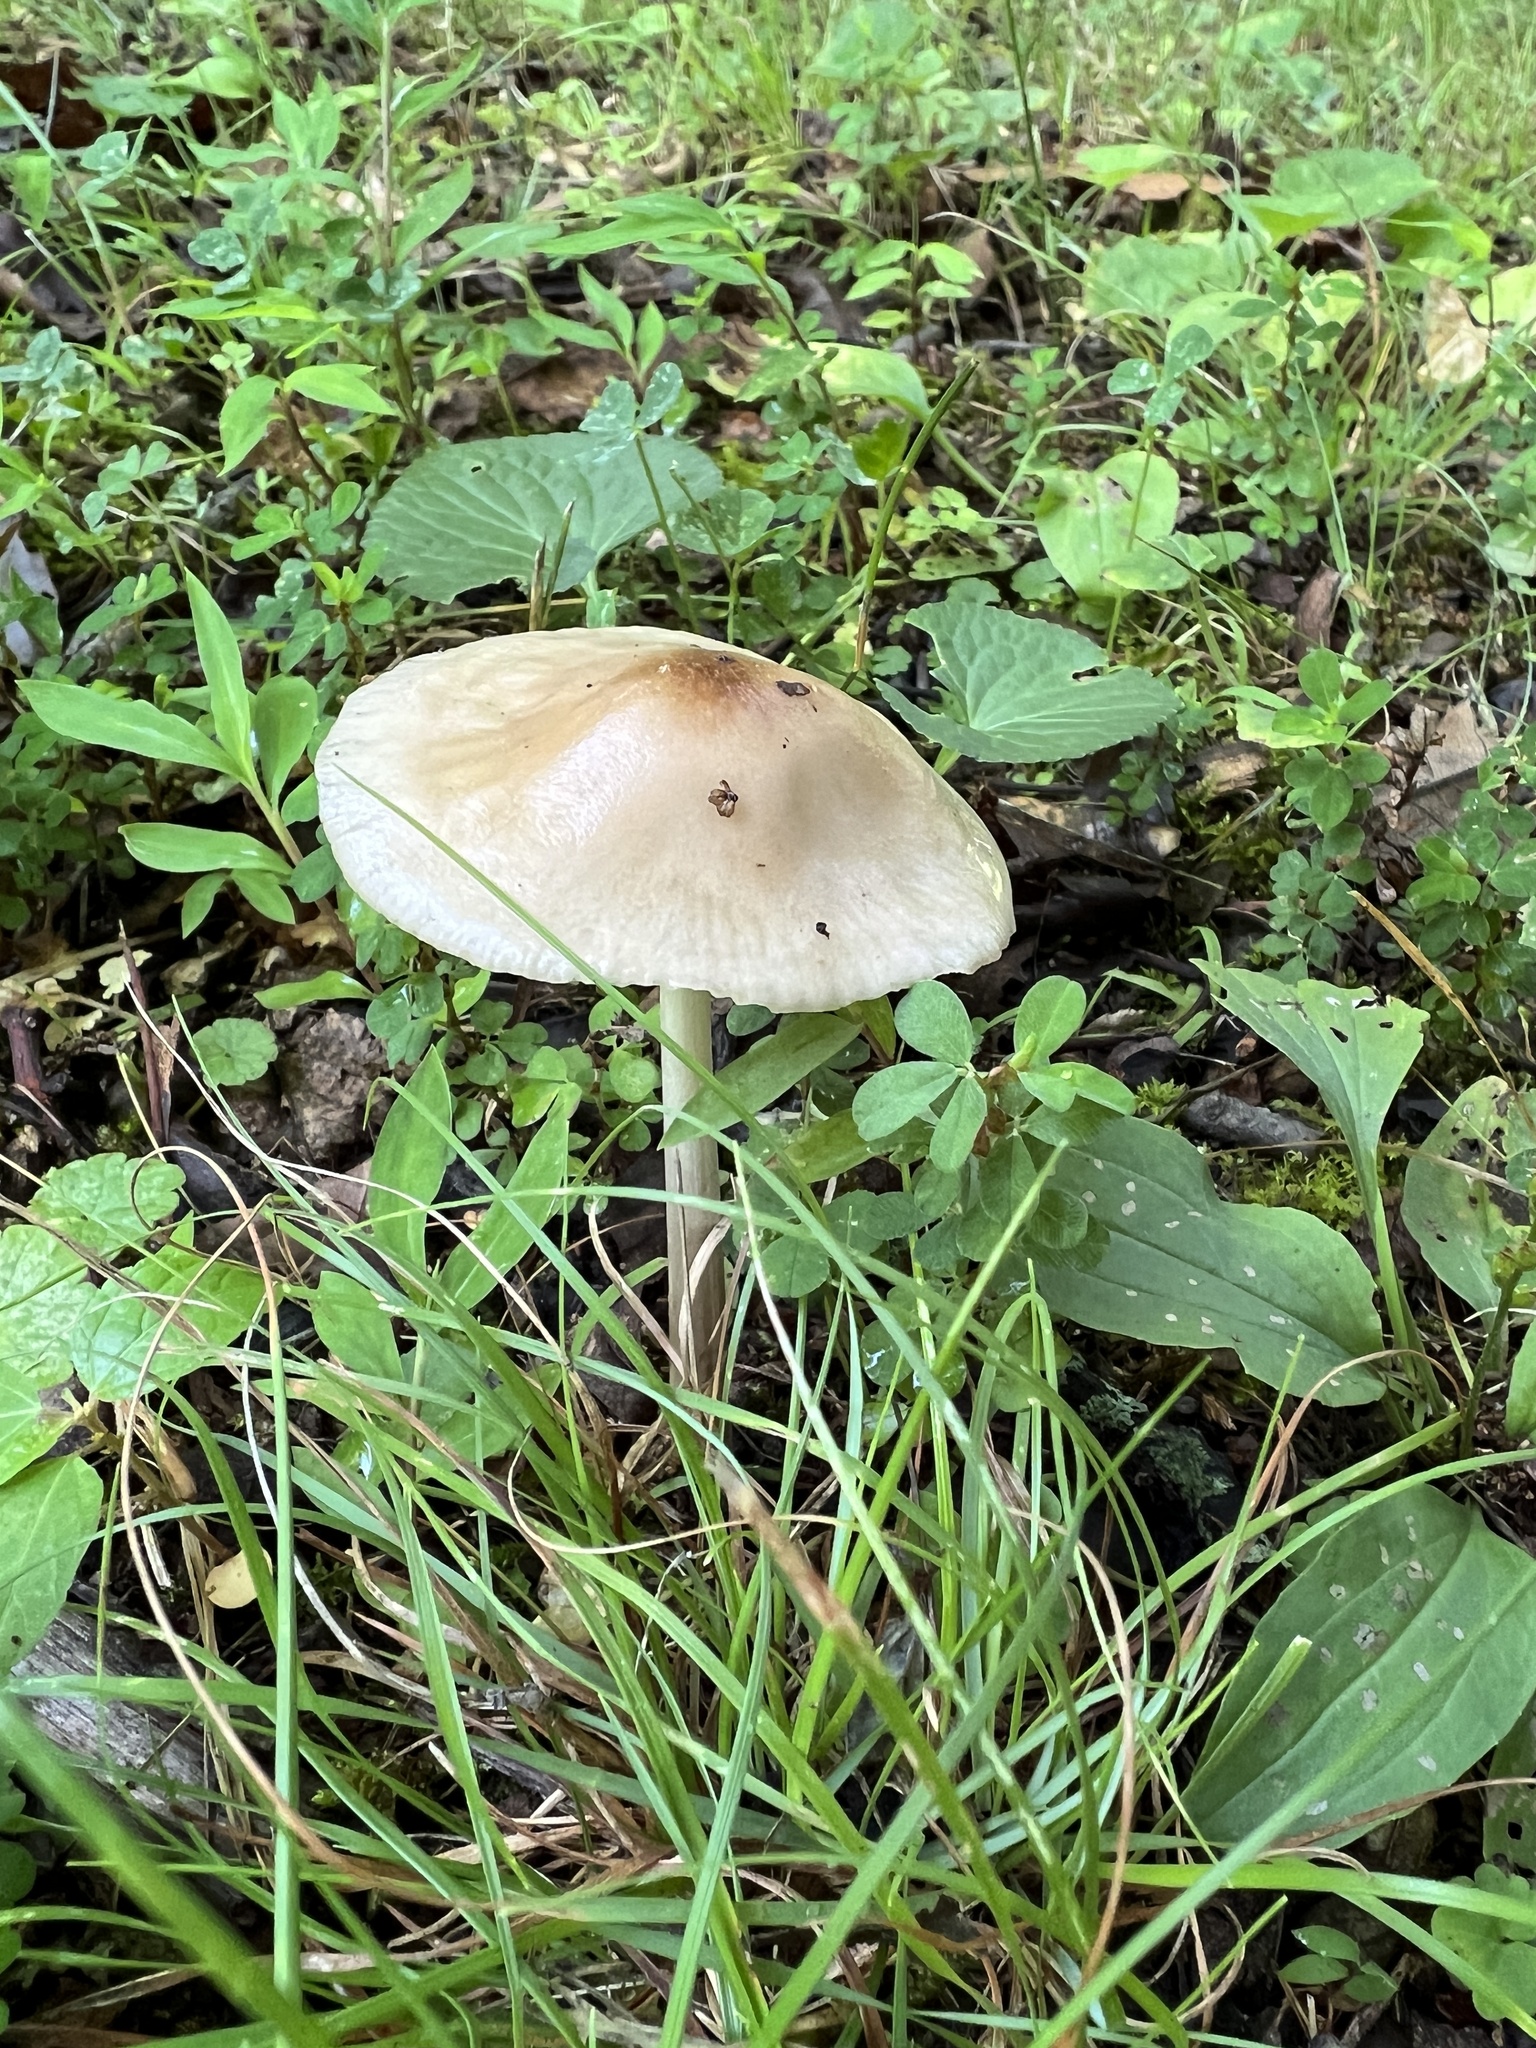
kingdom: Fungi
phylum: Basidiomycota
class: Agaricomycetes
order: Agaricales
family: Physalacriaceae
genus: Hymenopellis
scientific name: Hymenopellis megalospora
